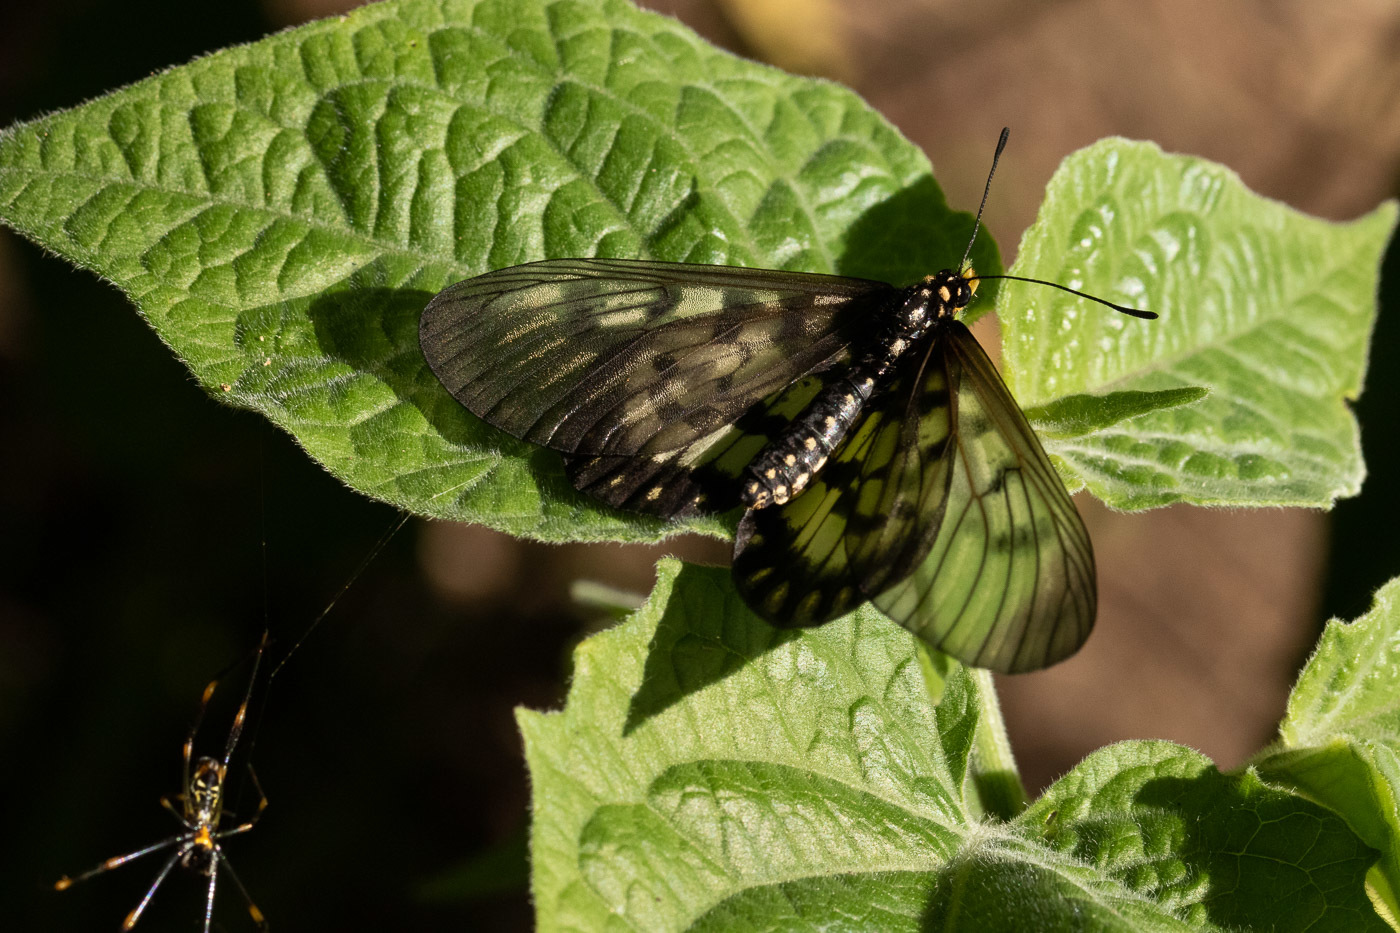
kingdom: Animalia
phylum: Arthropoda
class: Insecta
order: Lepidoptera
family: Nymphalidae
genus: Acraea
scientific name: Acraea andromacha
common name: Glasswing
